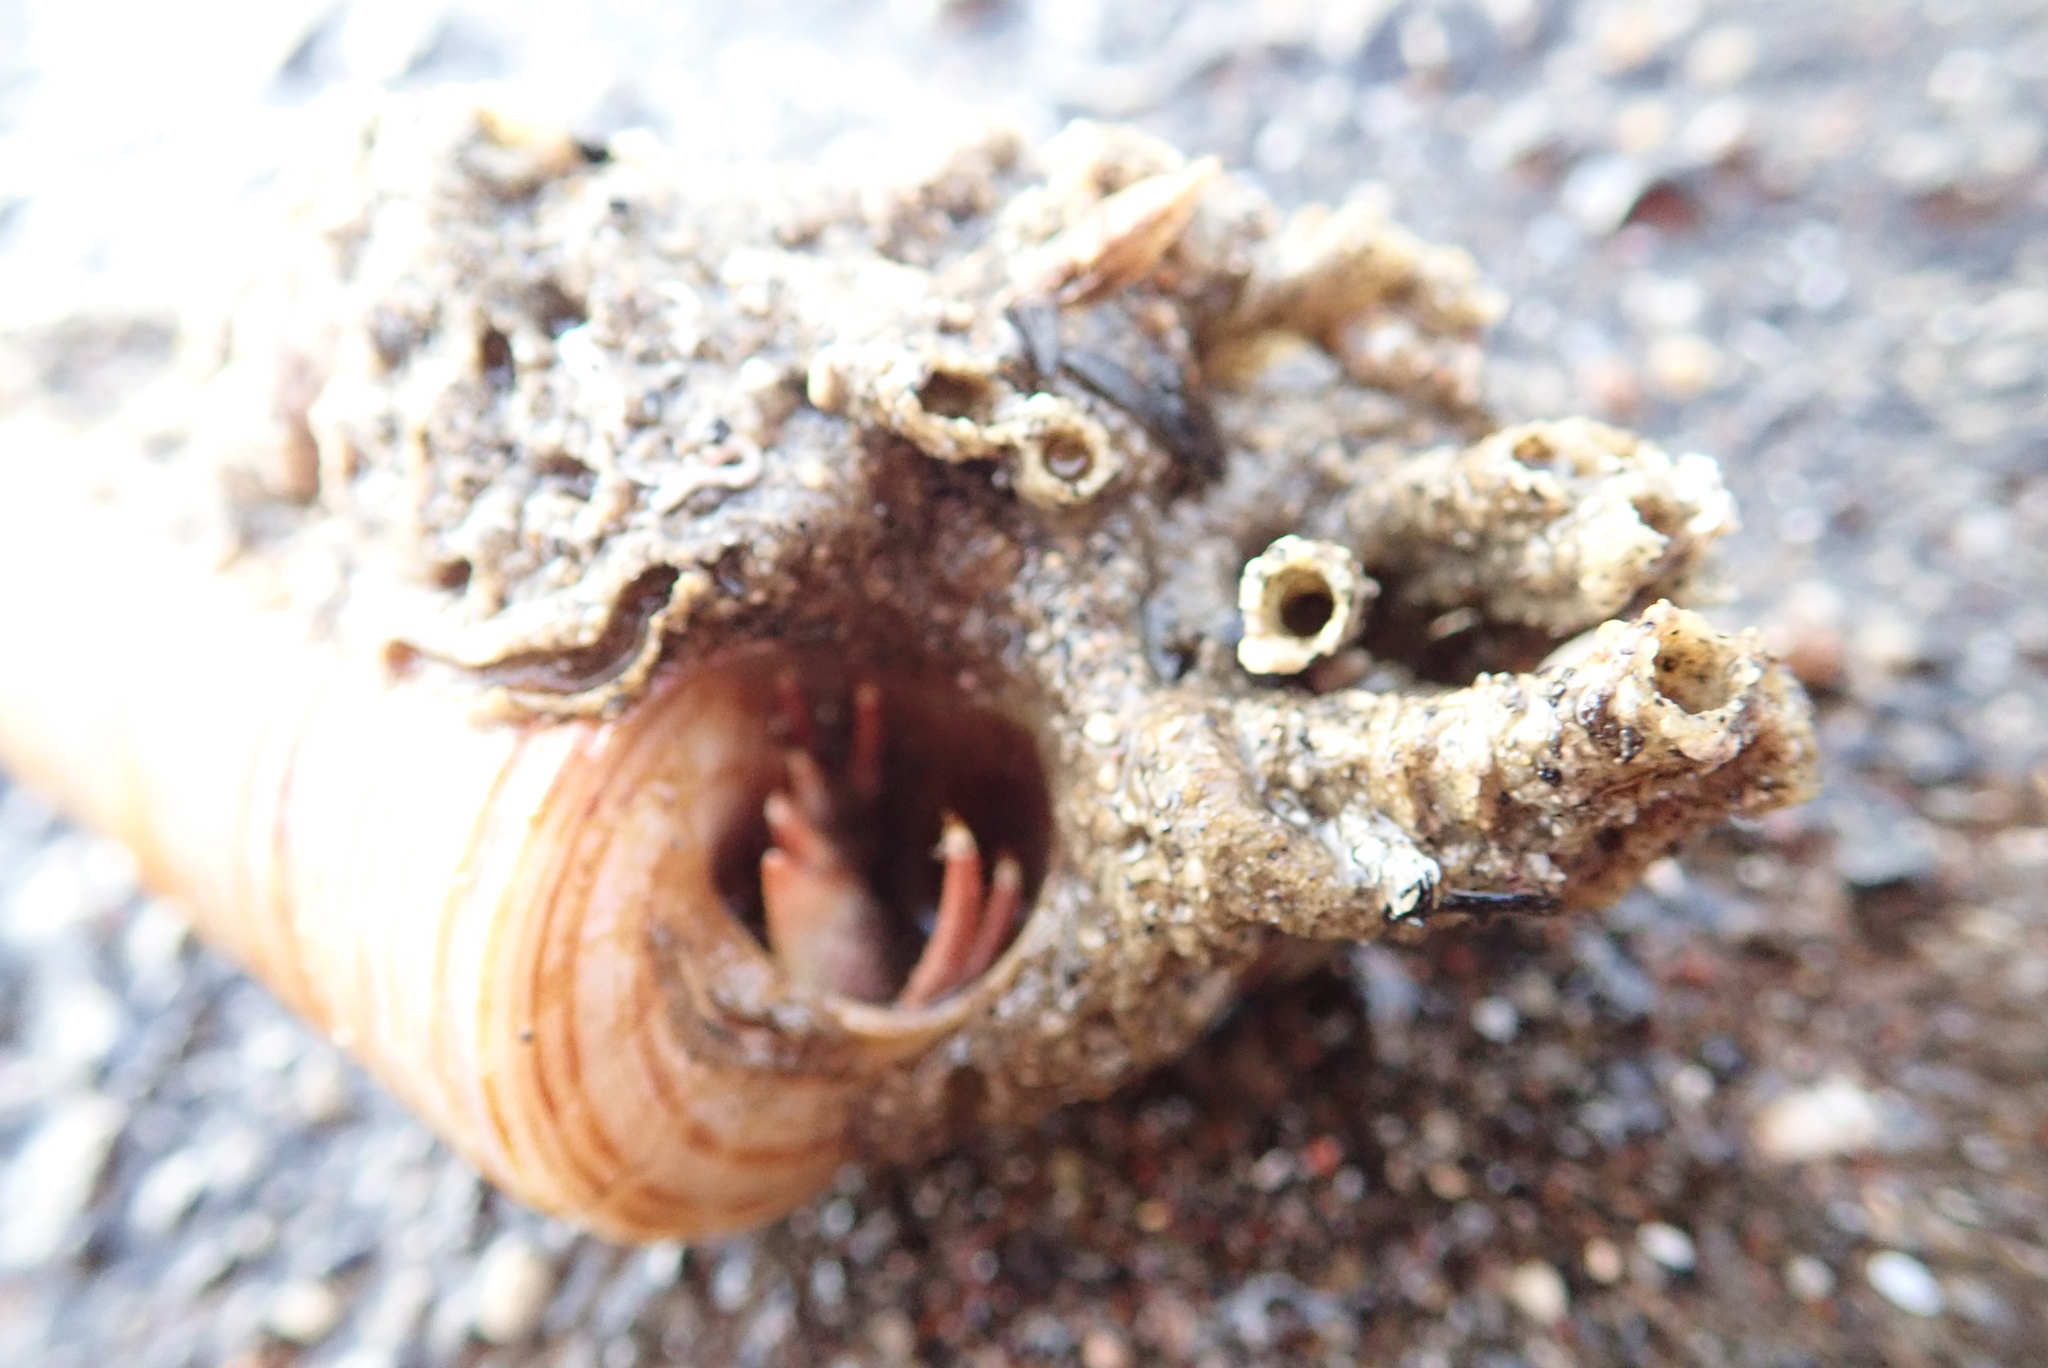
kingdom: Animalia
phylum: Mollusca
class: Gastropoda
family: Turritellidae
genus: Zeacolpus
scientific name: Zeacolpus vittatus
